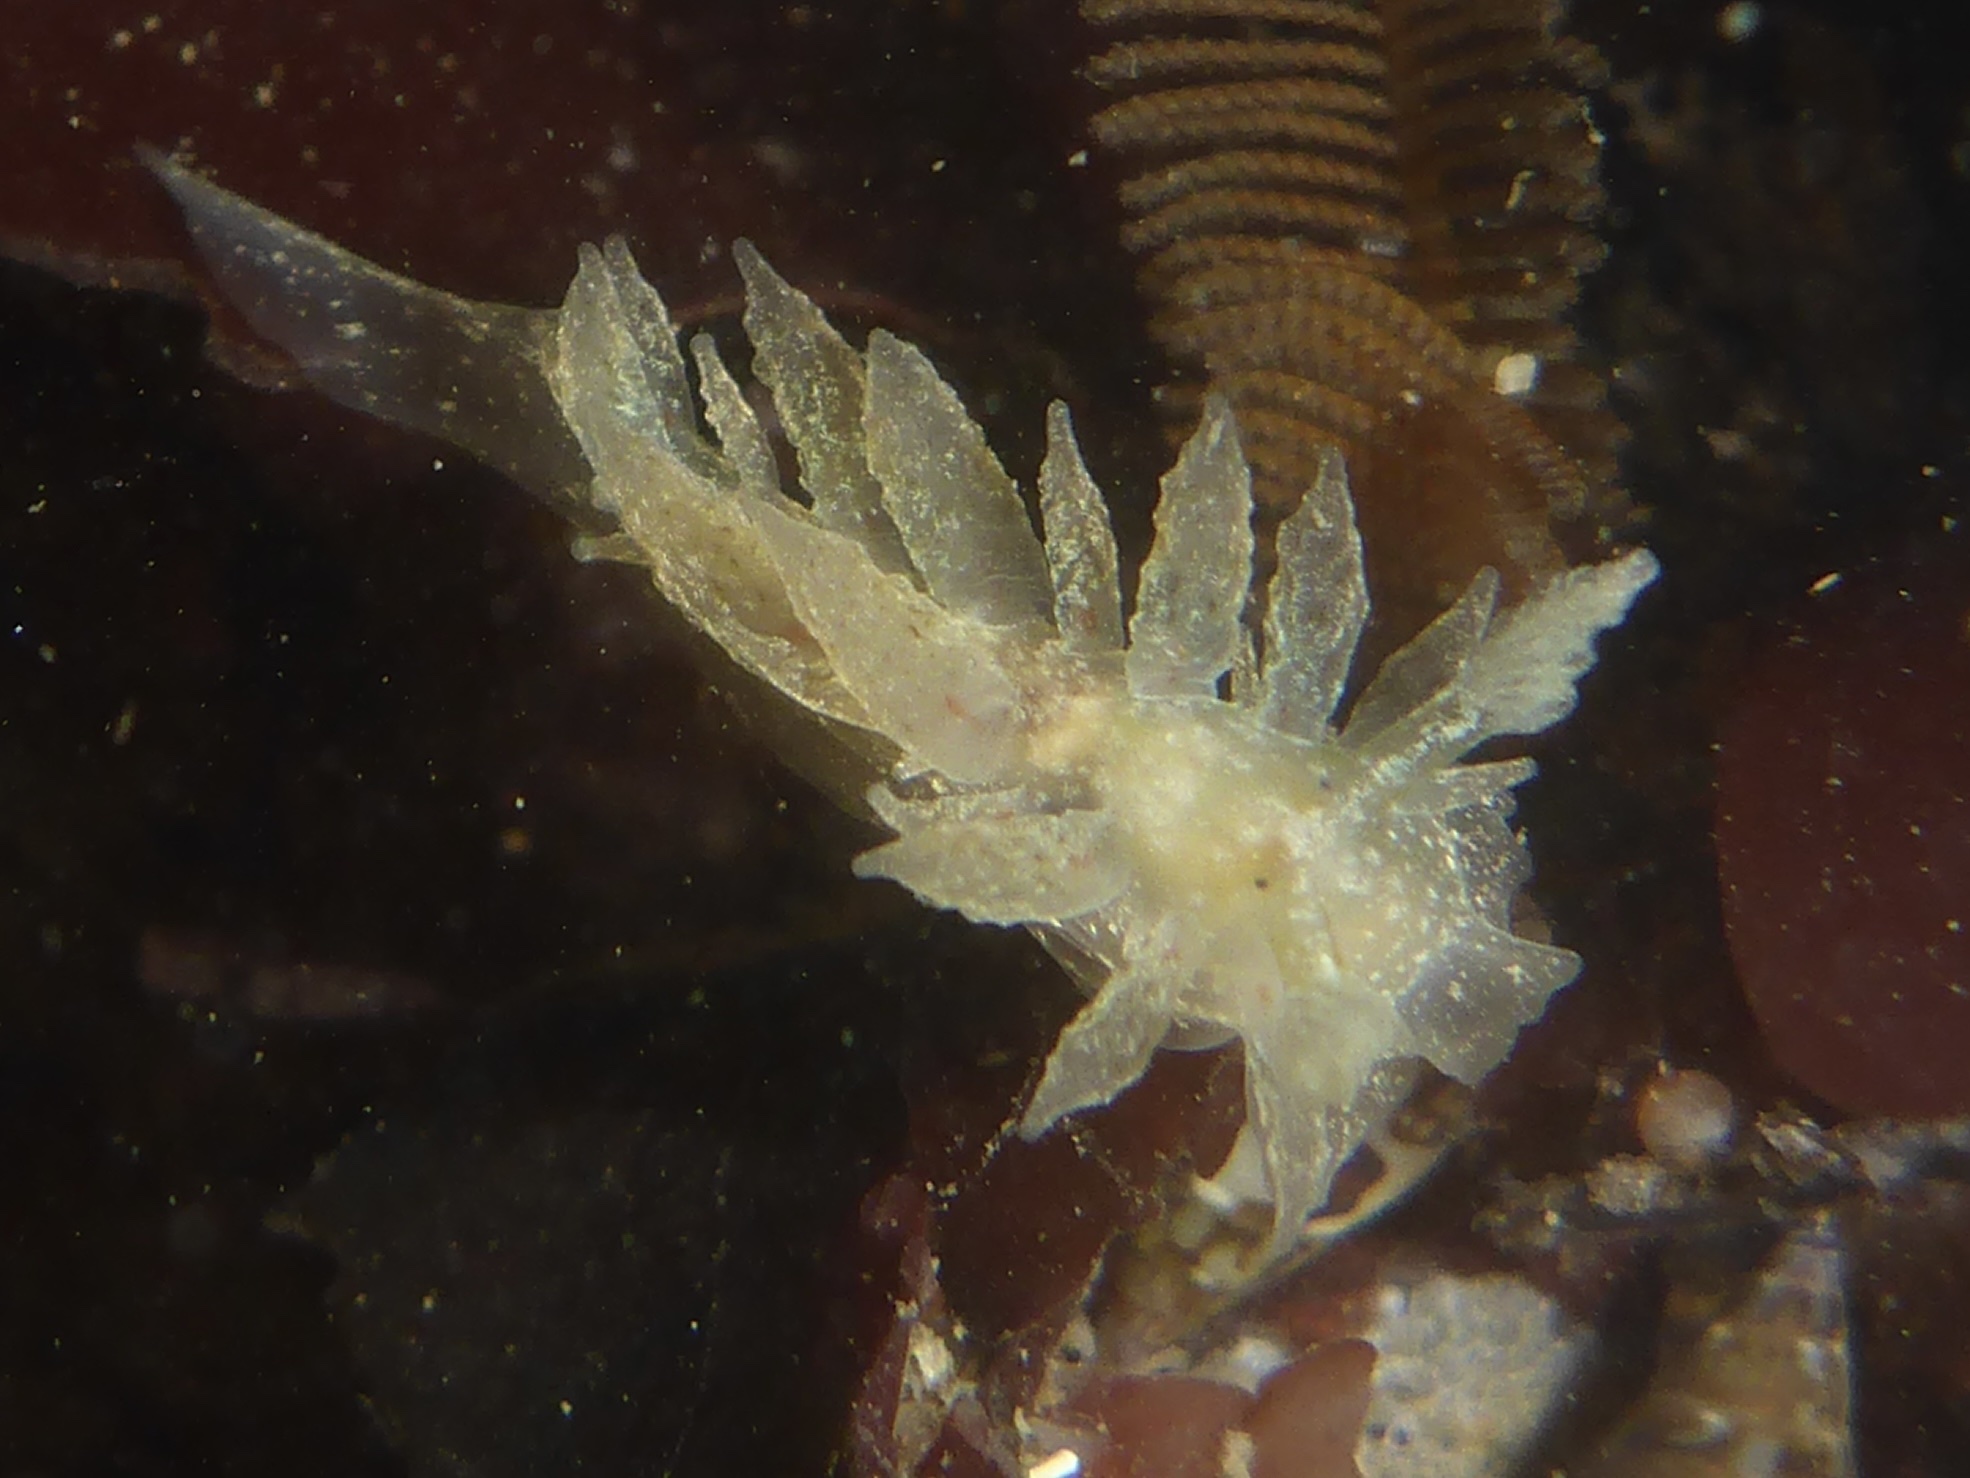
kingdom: Animalia
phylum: Mollusca
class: Gastropoda
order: Nudibranchia
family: Dironidae
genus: Dirona
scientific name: Dirona picta
